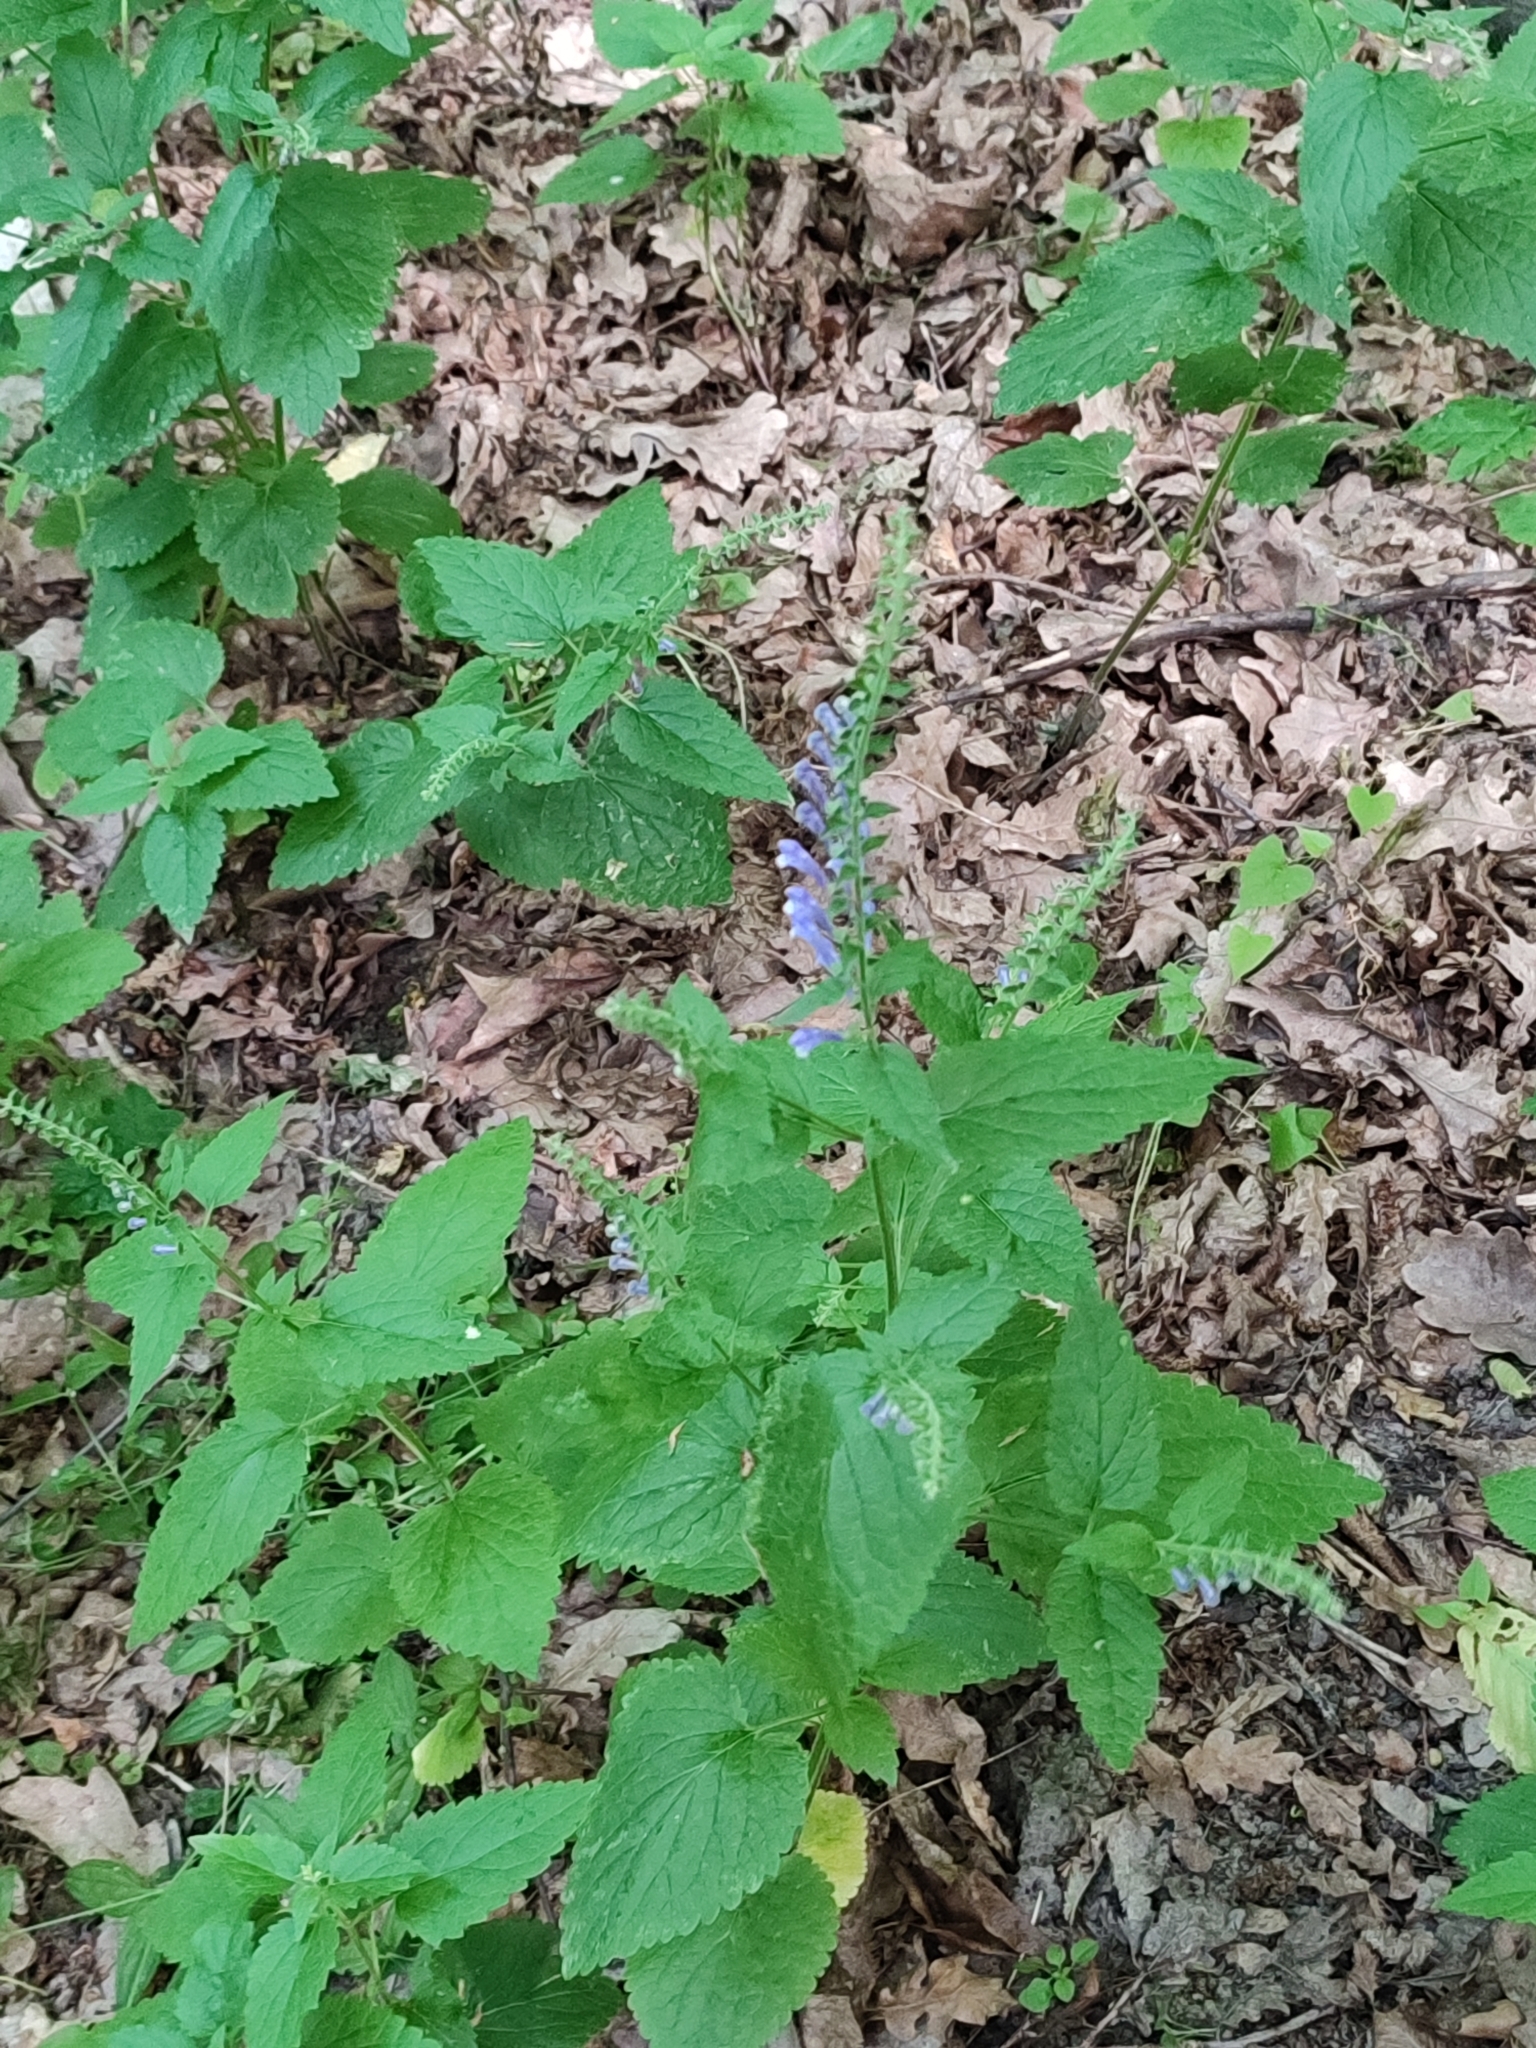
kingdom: Plantae
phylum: Tracheophyta
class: Magnoliopsida
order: Lamiales
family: Lamiaceae
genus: Scutellaria
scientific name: Scutellaria altissima
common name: Somerset skullcap
